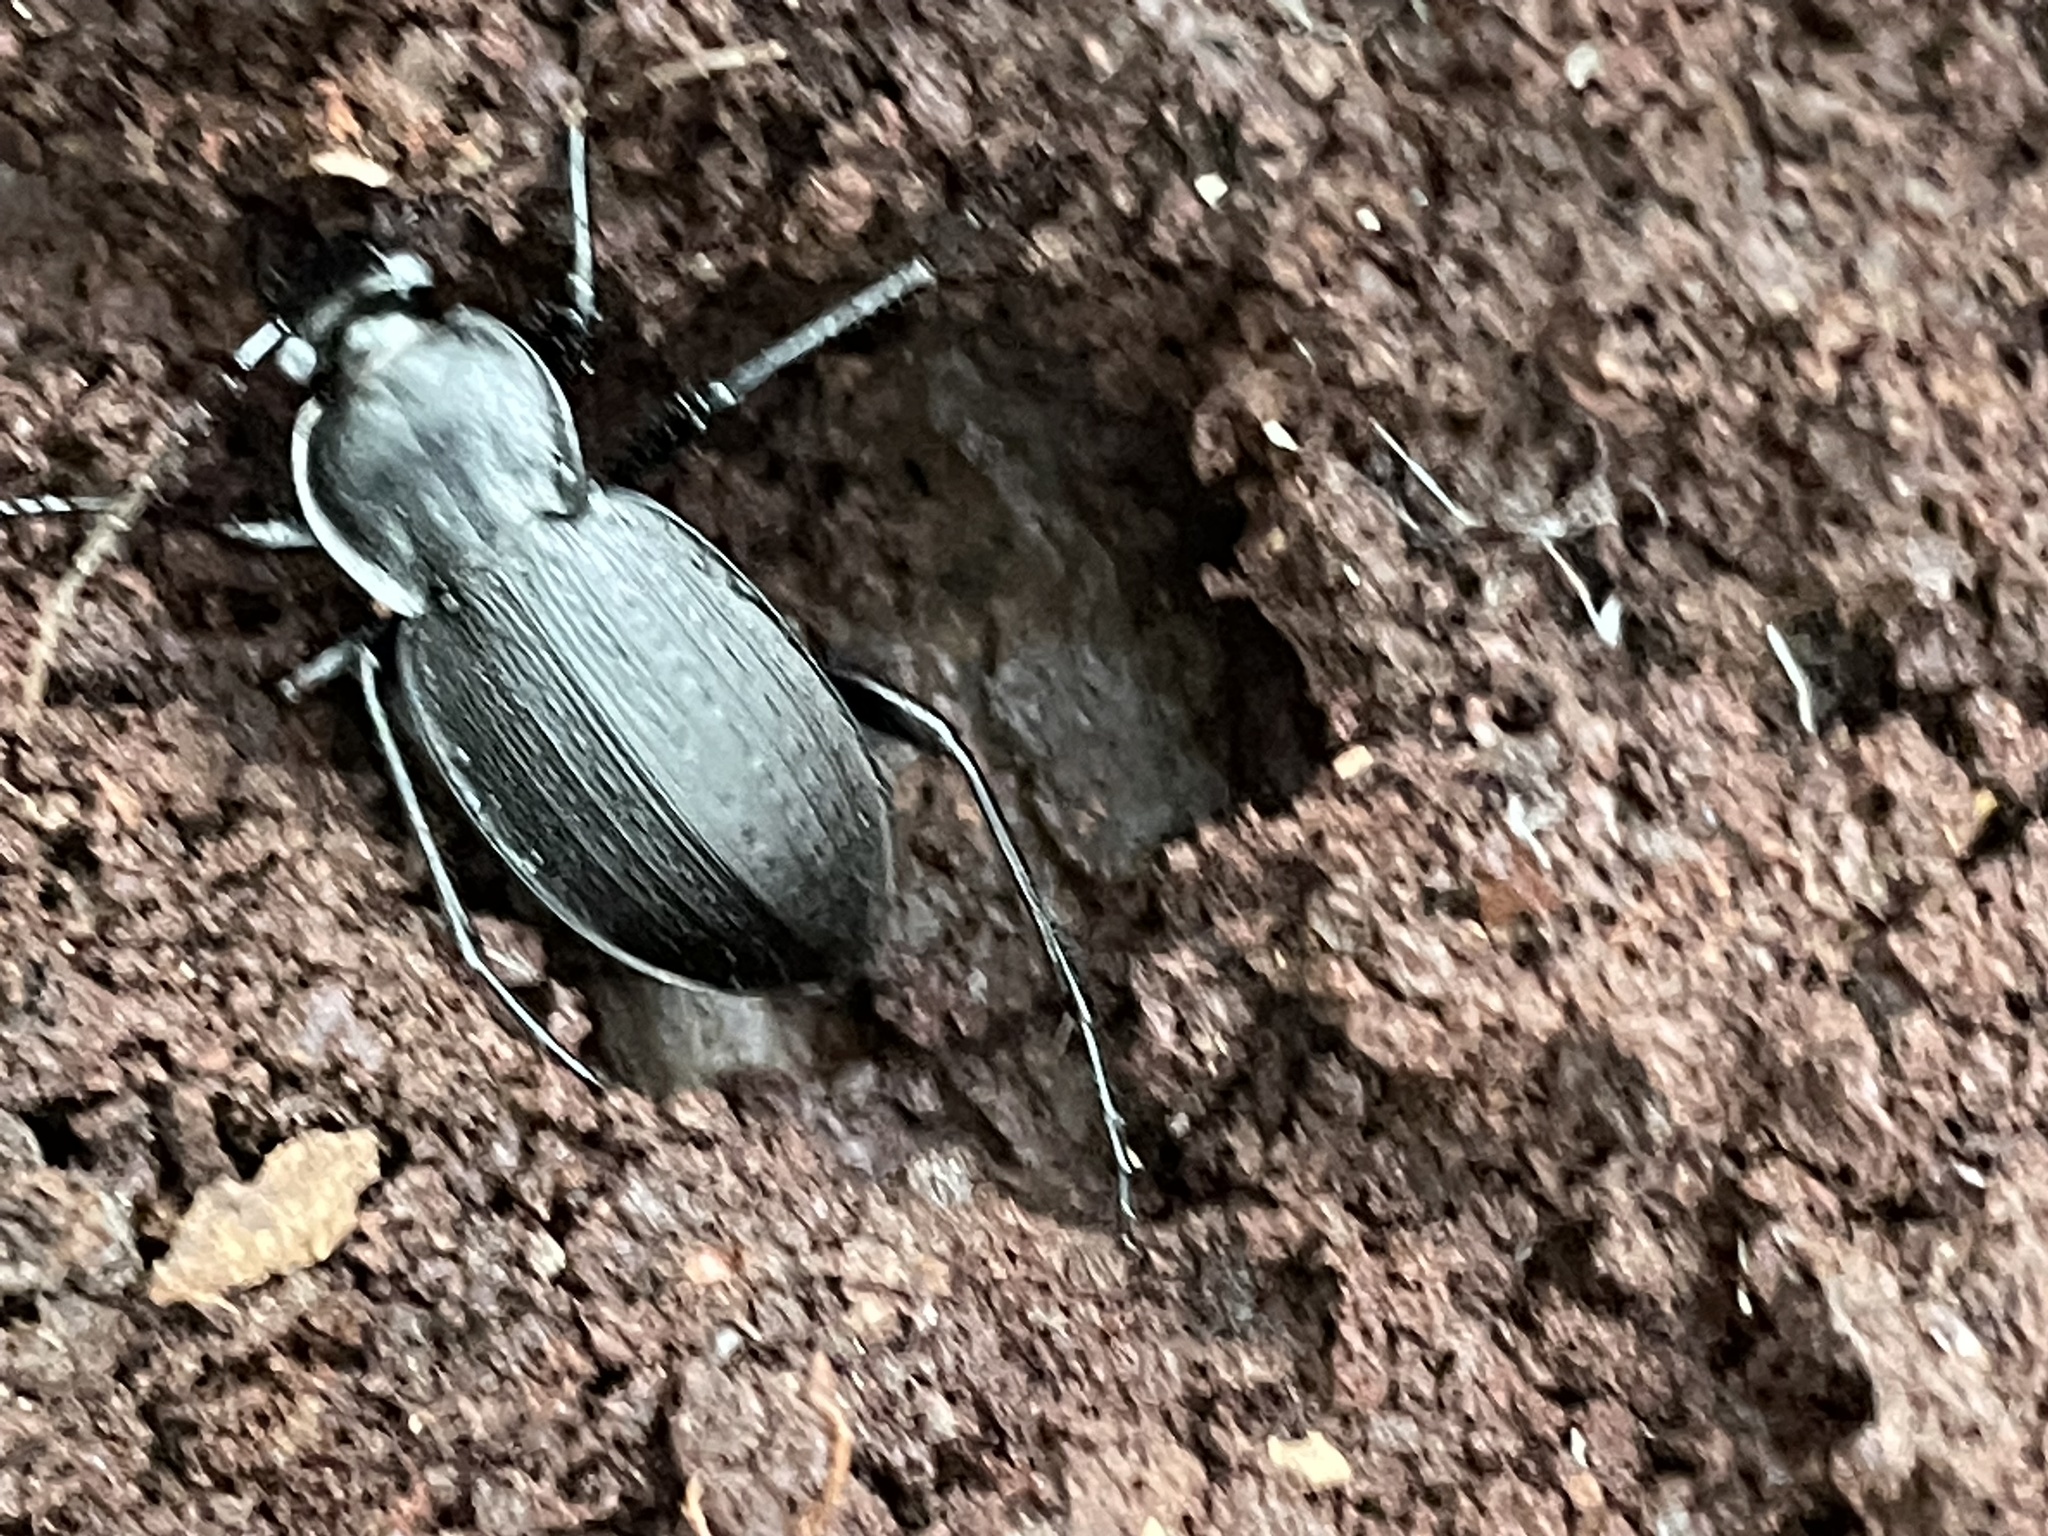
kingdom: Animalia
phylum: Arthropoda
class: Insecta
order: Coleoptera
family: Carabidae
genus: Carabus
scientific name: Carabus vinctus
